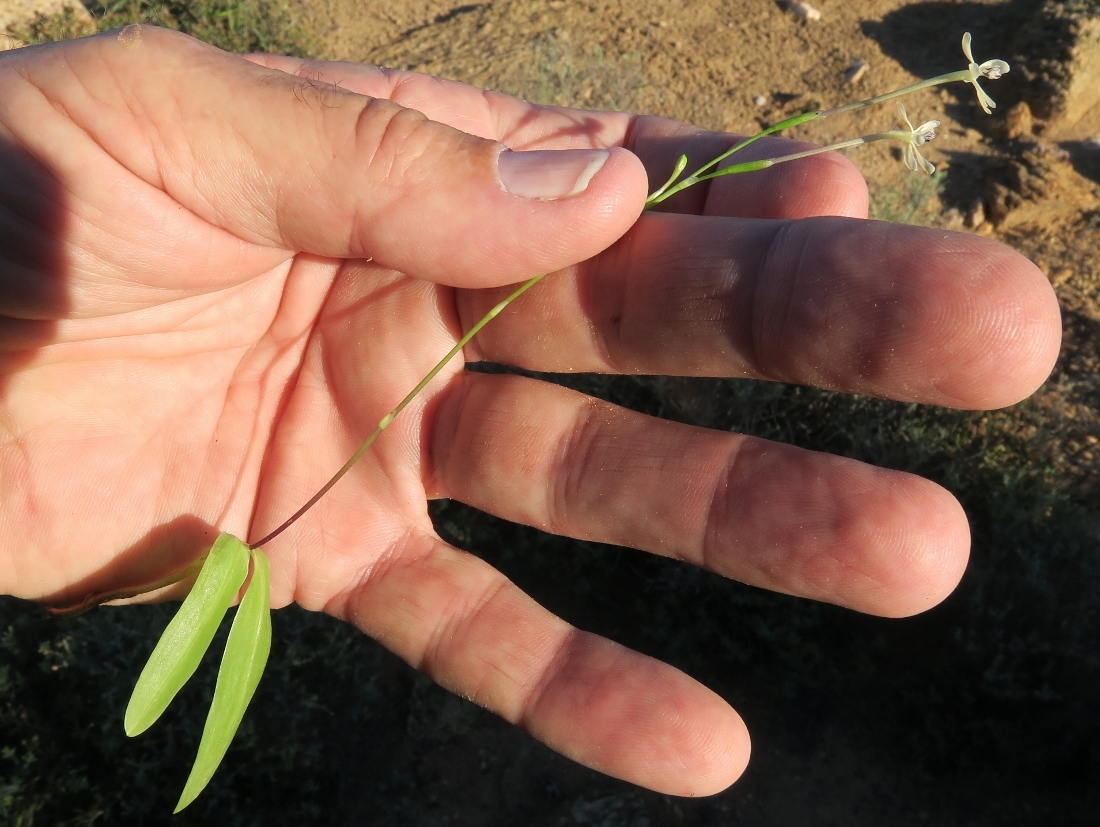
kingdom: Plantae
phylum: Tracheophyta
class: Liliopsida
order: Asparagales
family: Iridaceae
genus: Xenoscapa
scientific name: Xenoscapa fistulosa
